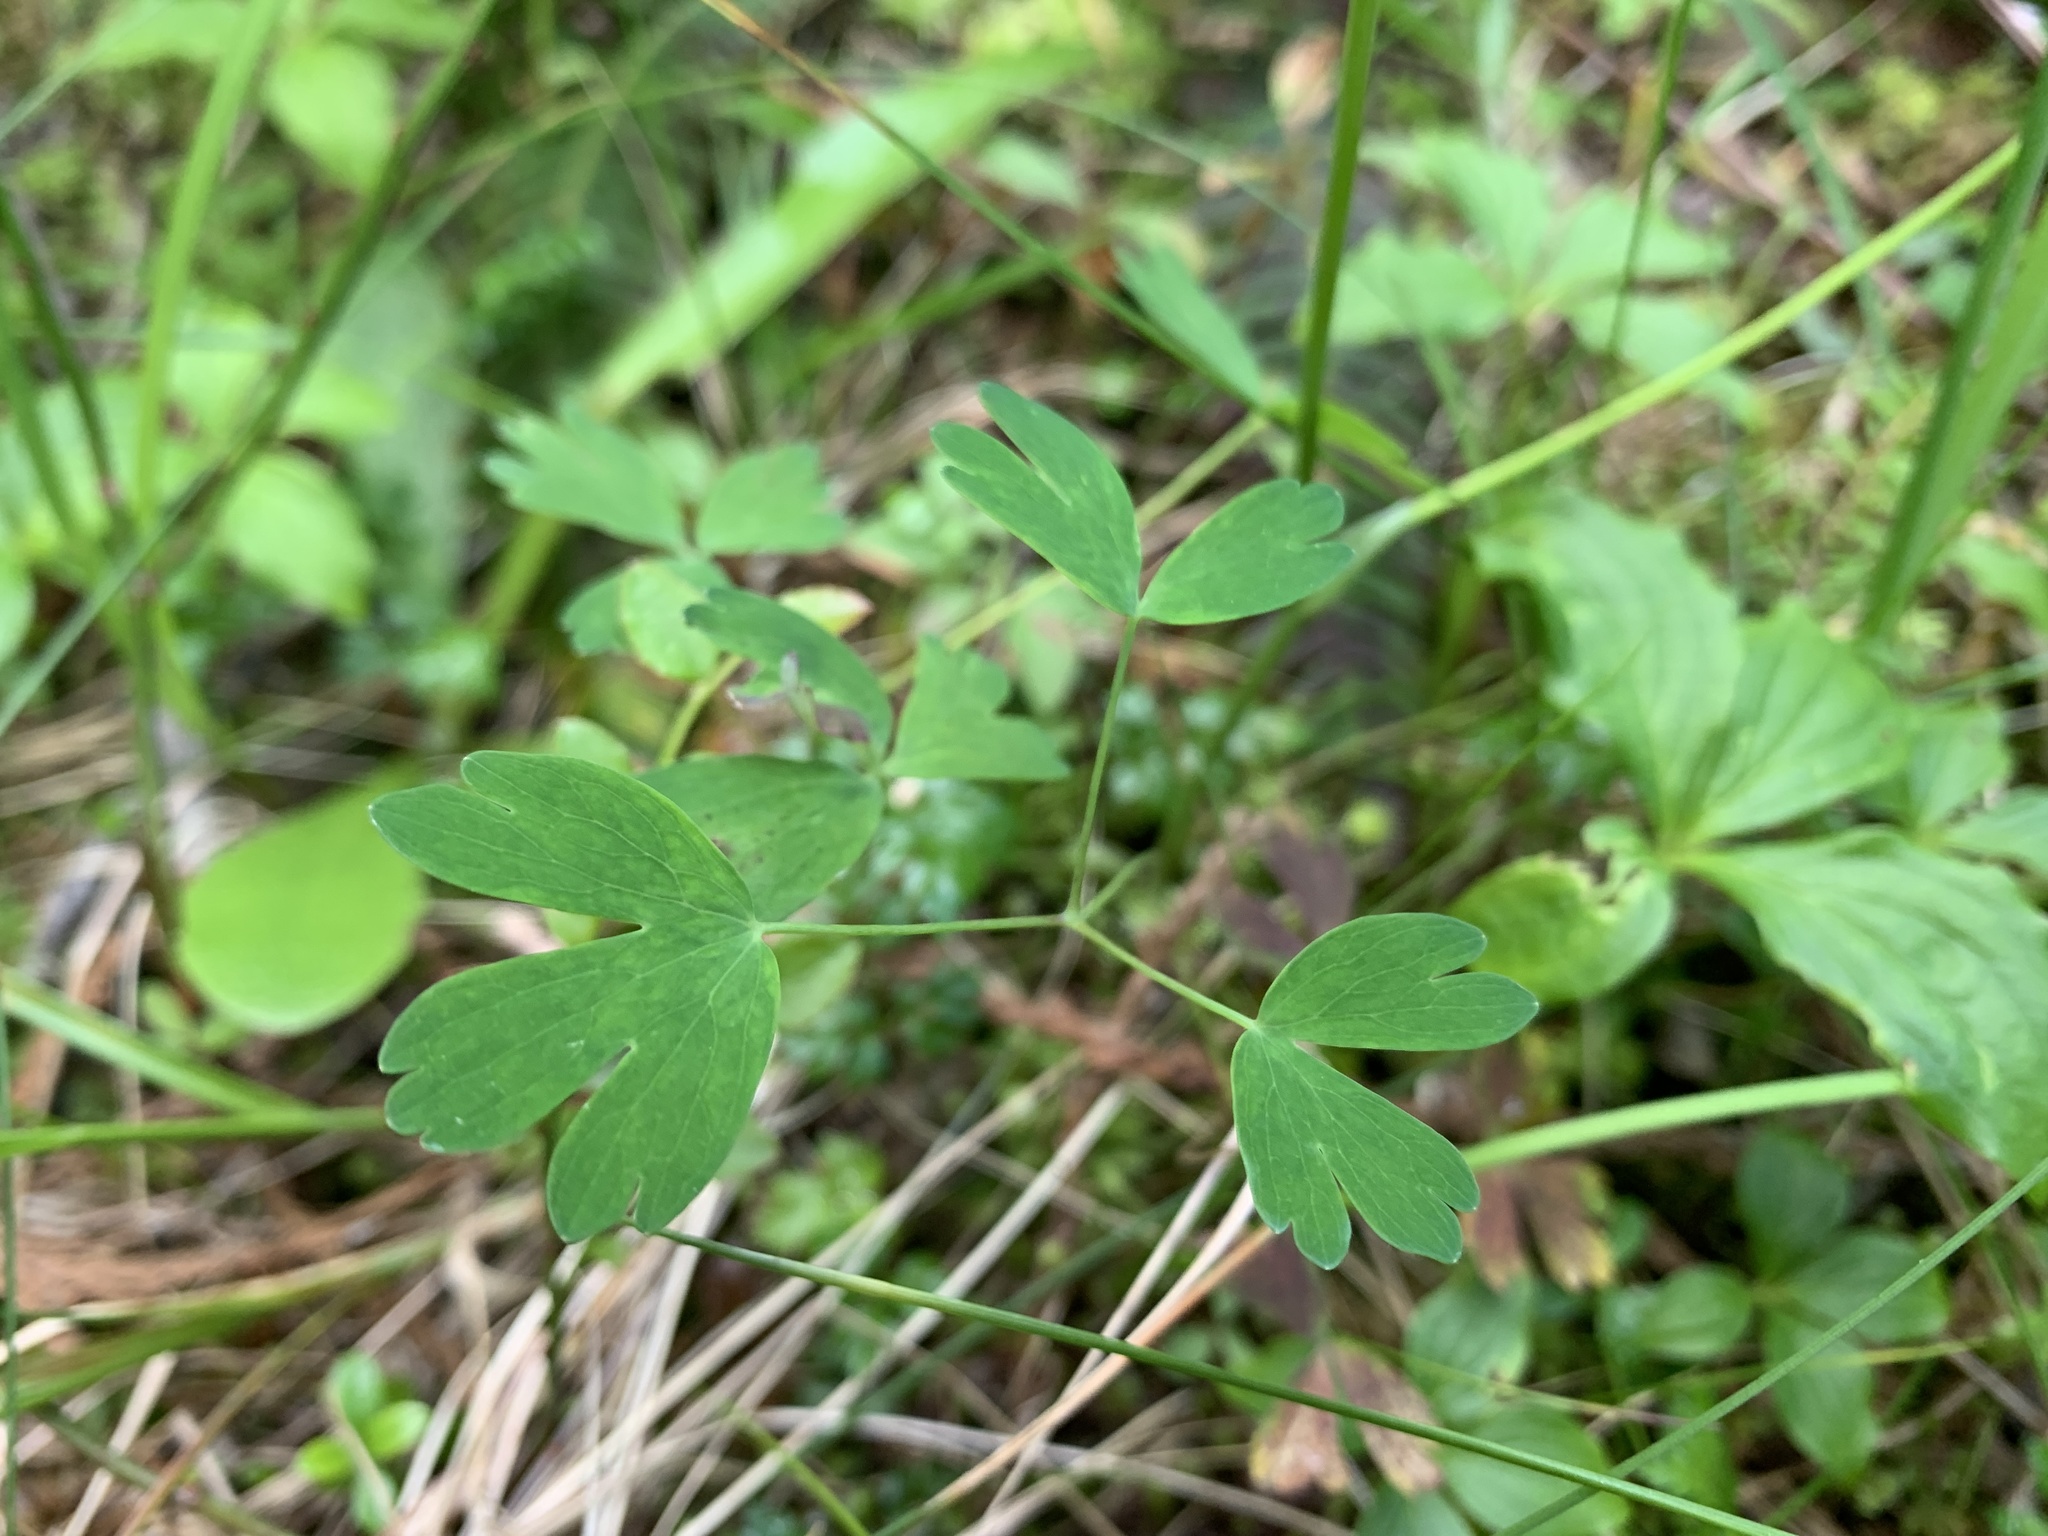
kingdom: Plantae
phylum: Tracheophyta
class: Magnoliopsida
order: Ranunculales
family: Ranunculaceae
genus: Aquilegia
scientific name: Aquilegia formosa
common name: Sitka columbine
